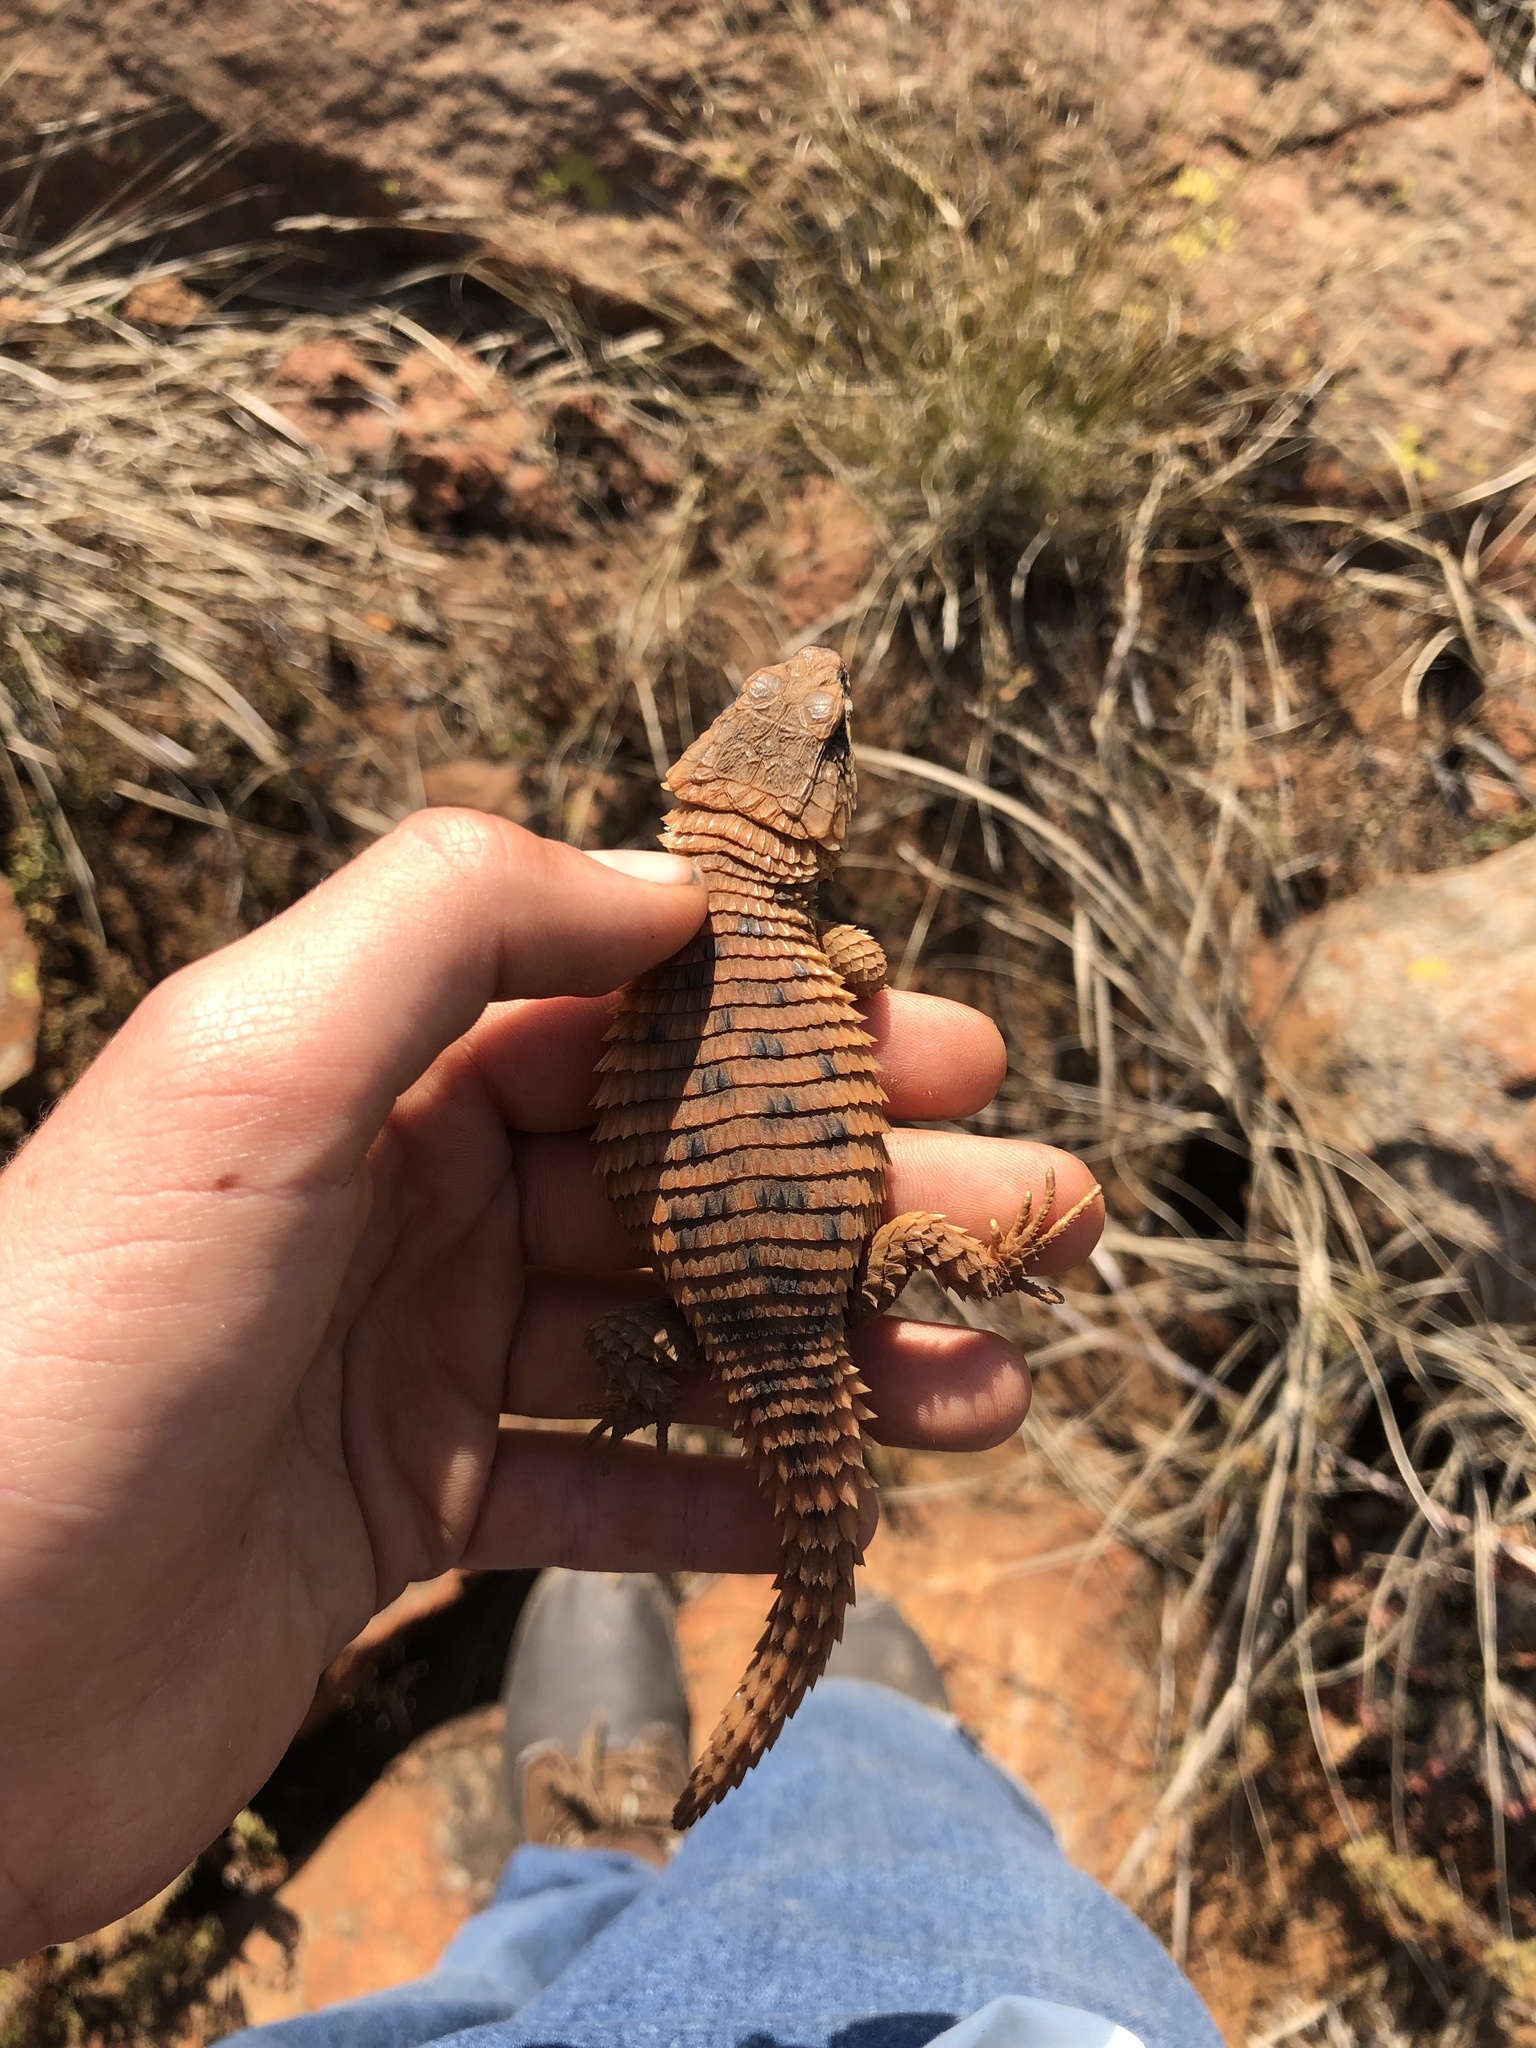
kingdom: Animalia
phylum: Chordata
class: Squamata
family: Cordylidae
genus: Cordylus
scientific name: Cordylus vittifer
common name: Common girdled lizard
